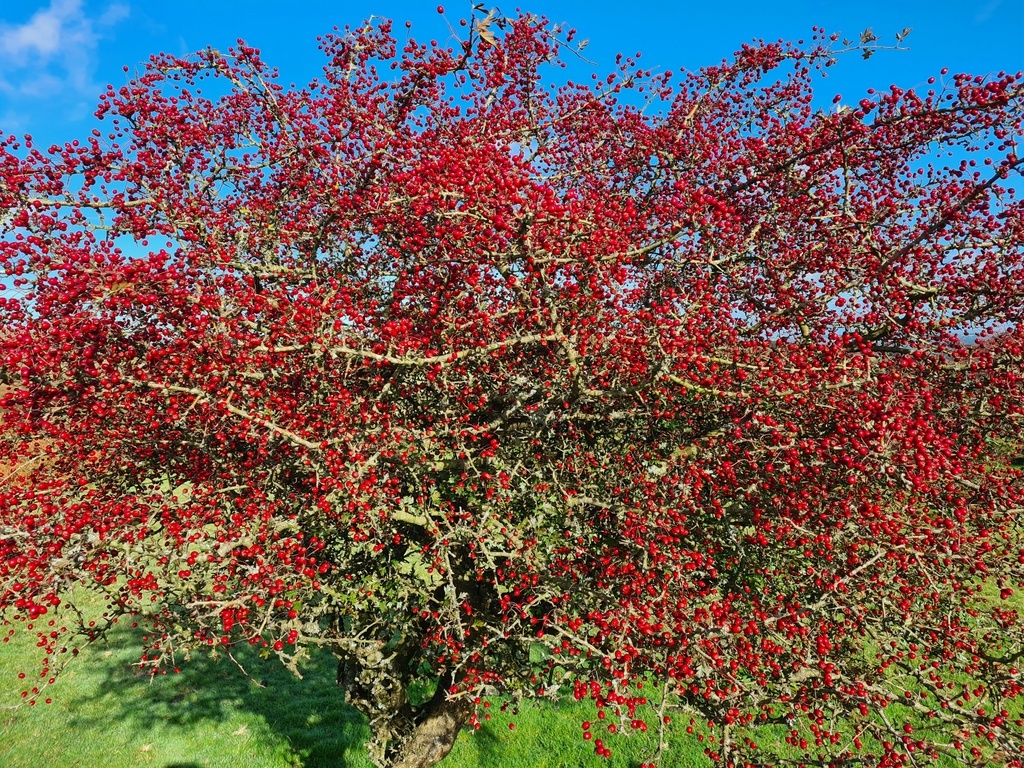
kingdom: Plantae
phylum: Tracheophyta
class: Magnoliopsida
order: Rosales
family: Rosaceae
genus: Crataegus
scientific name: Crataegus monogyna
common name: Hawthorn
